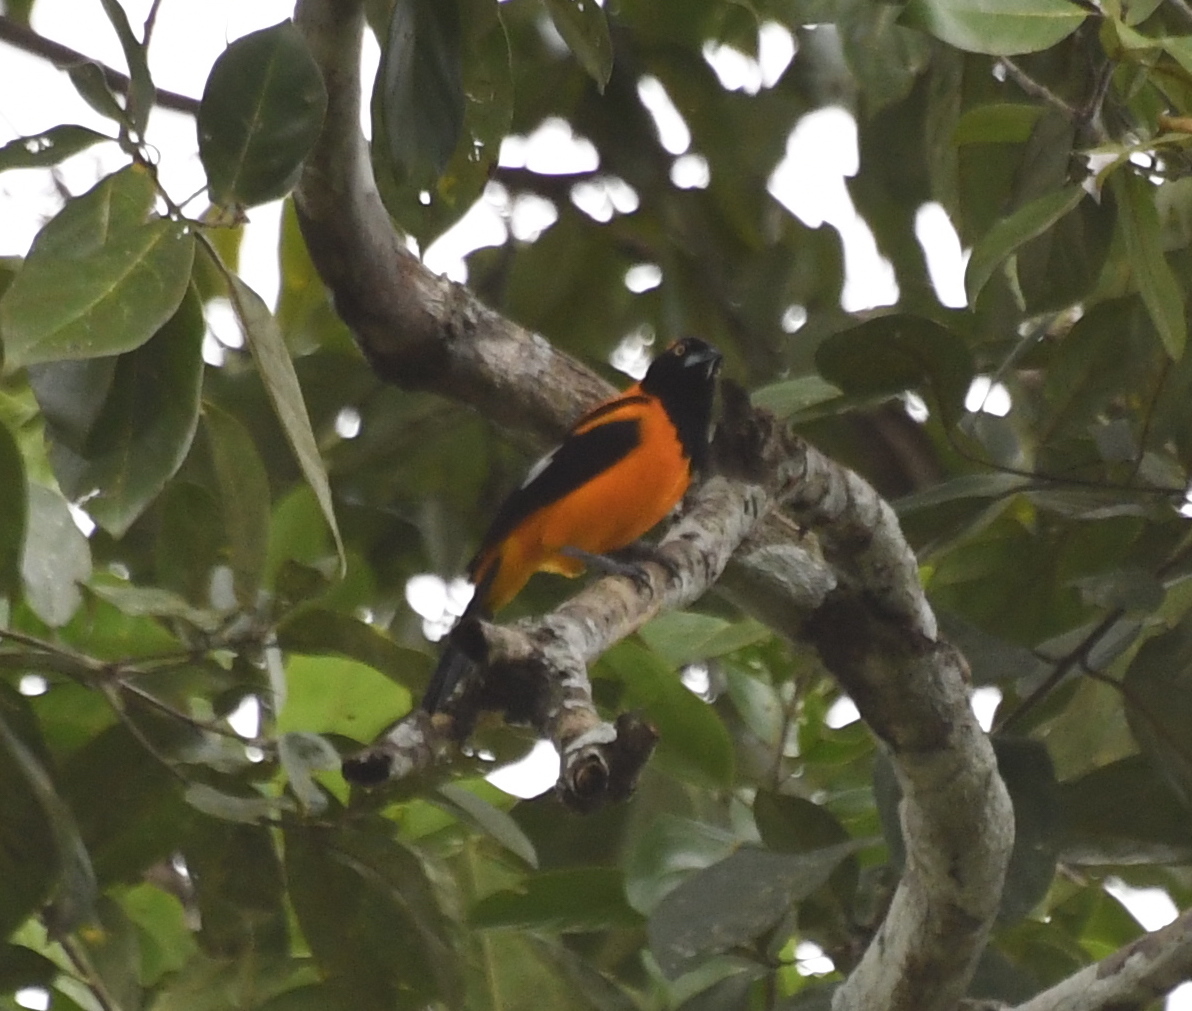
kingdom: Animalia
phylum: Chordata
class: Aves
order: Passeriformes
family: Icteridae
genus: Icterus
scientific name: Icterus icterus
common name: Venezuelan troupial
